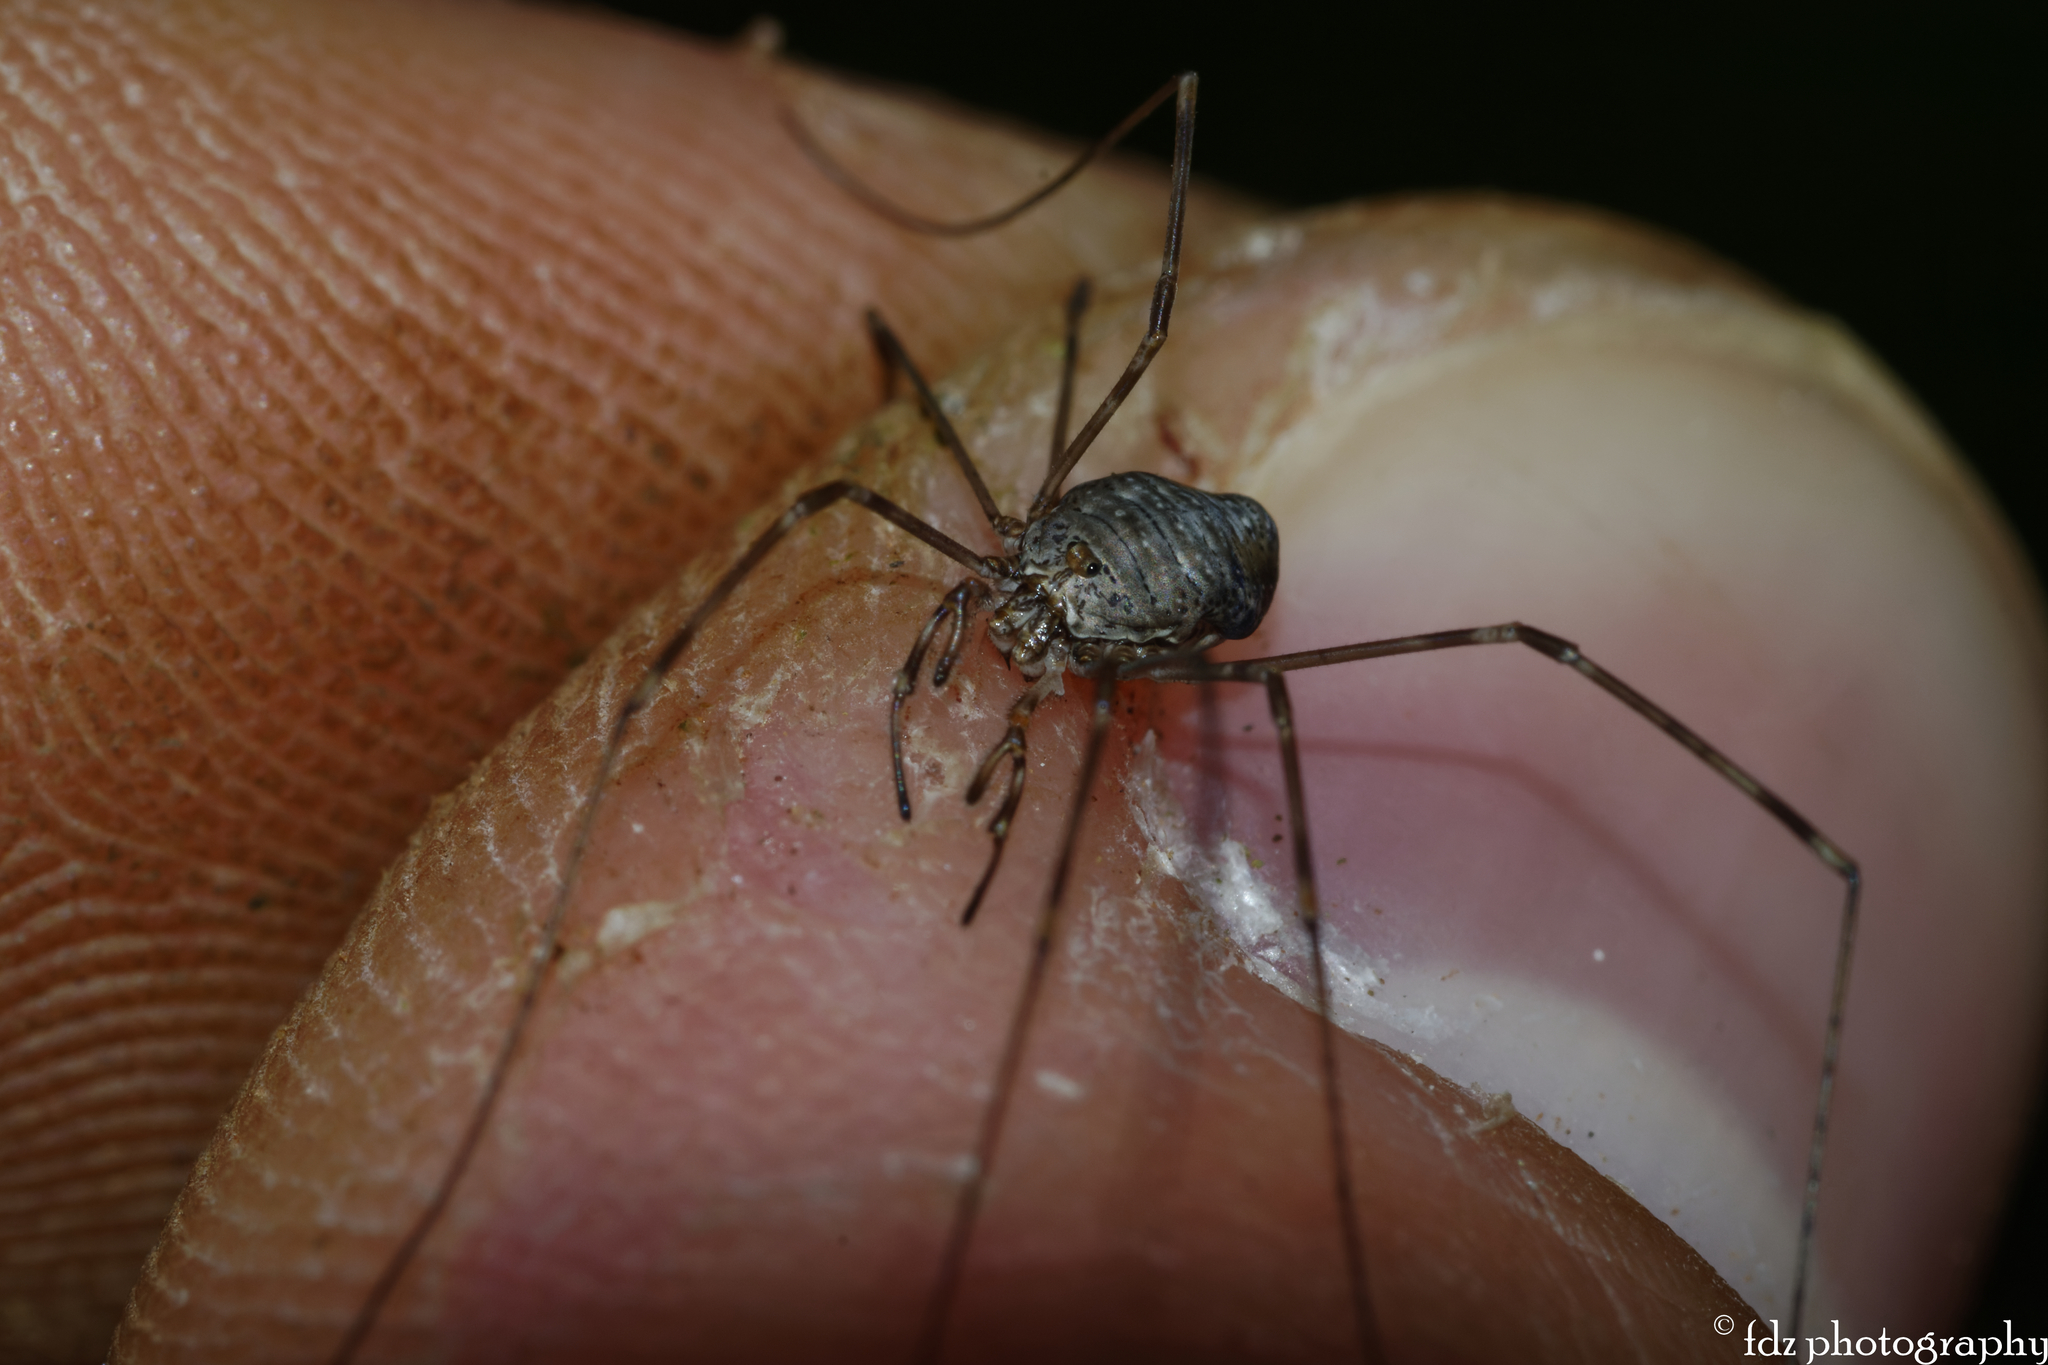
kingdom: Animalia
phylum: Arthropoda
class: Arachnida
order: Opiliones
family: Phalangiidae
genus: Dicranopalpus
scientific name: Dicranopalpus caudatus
